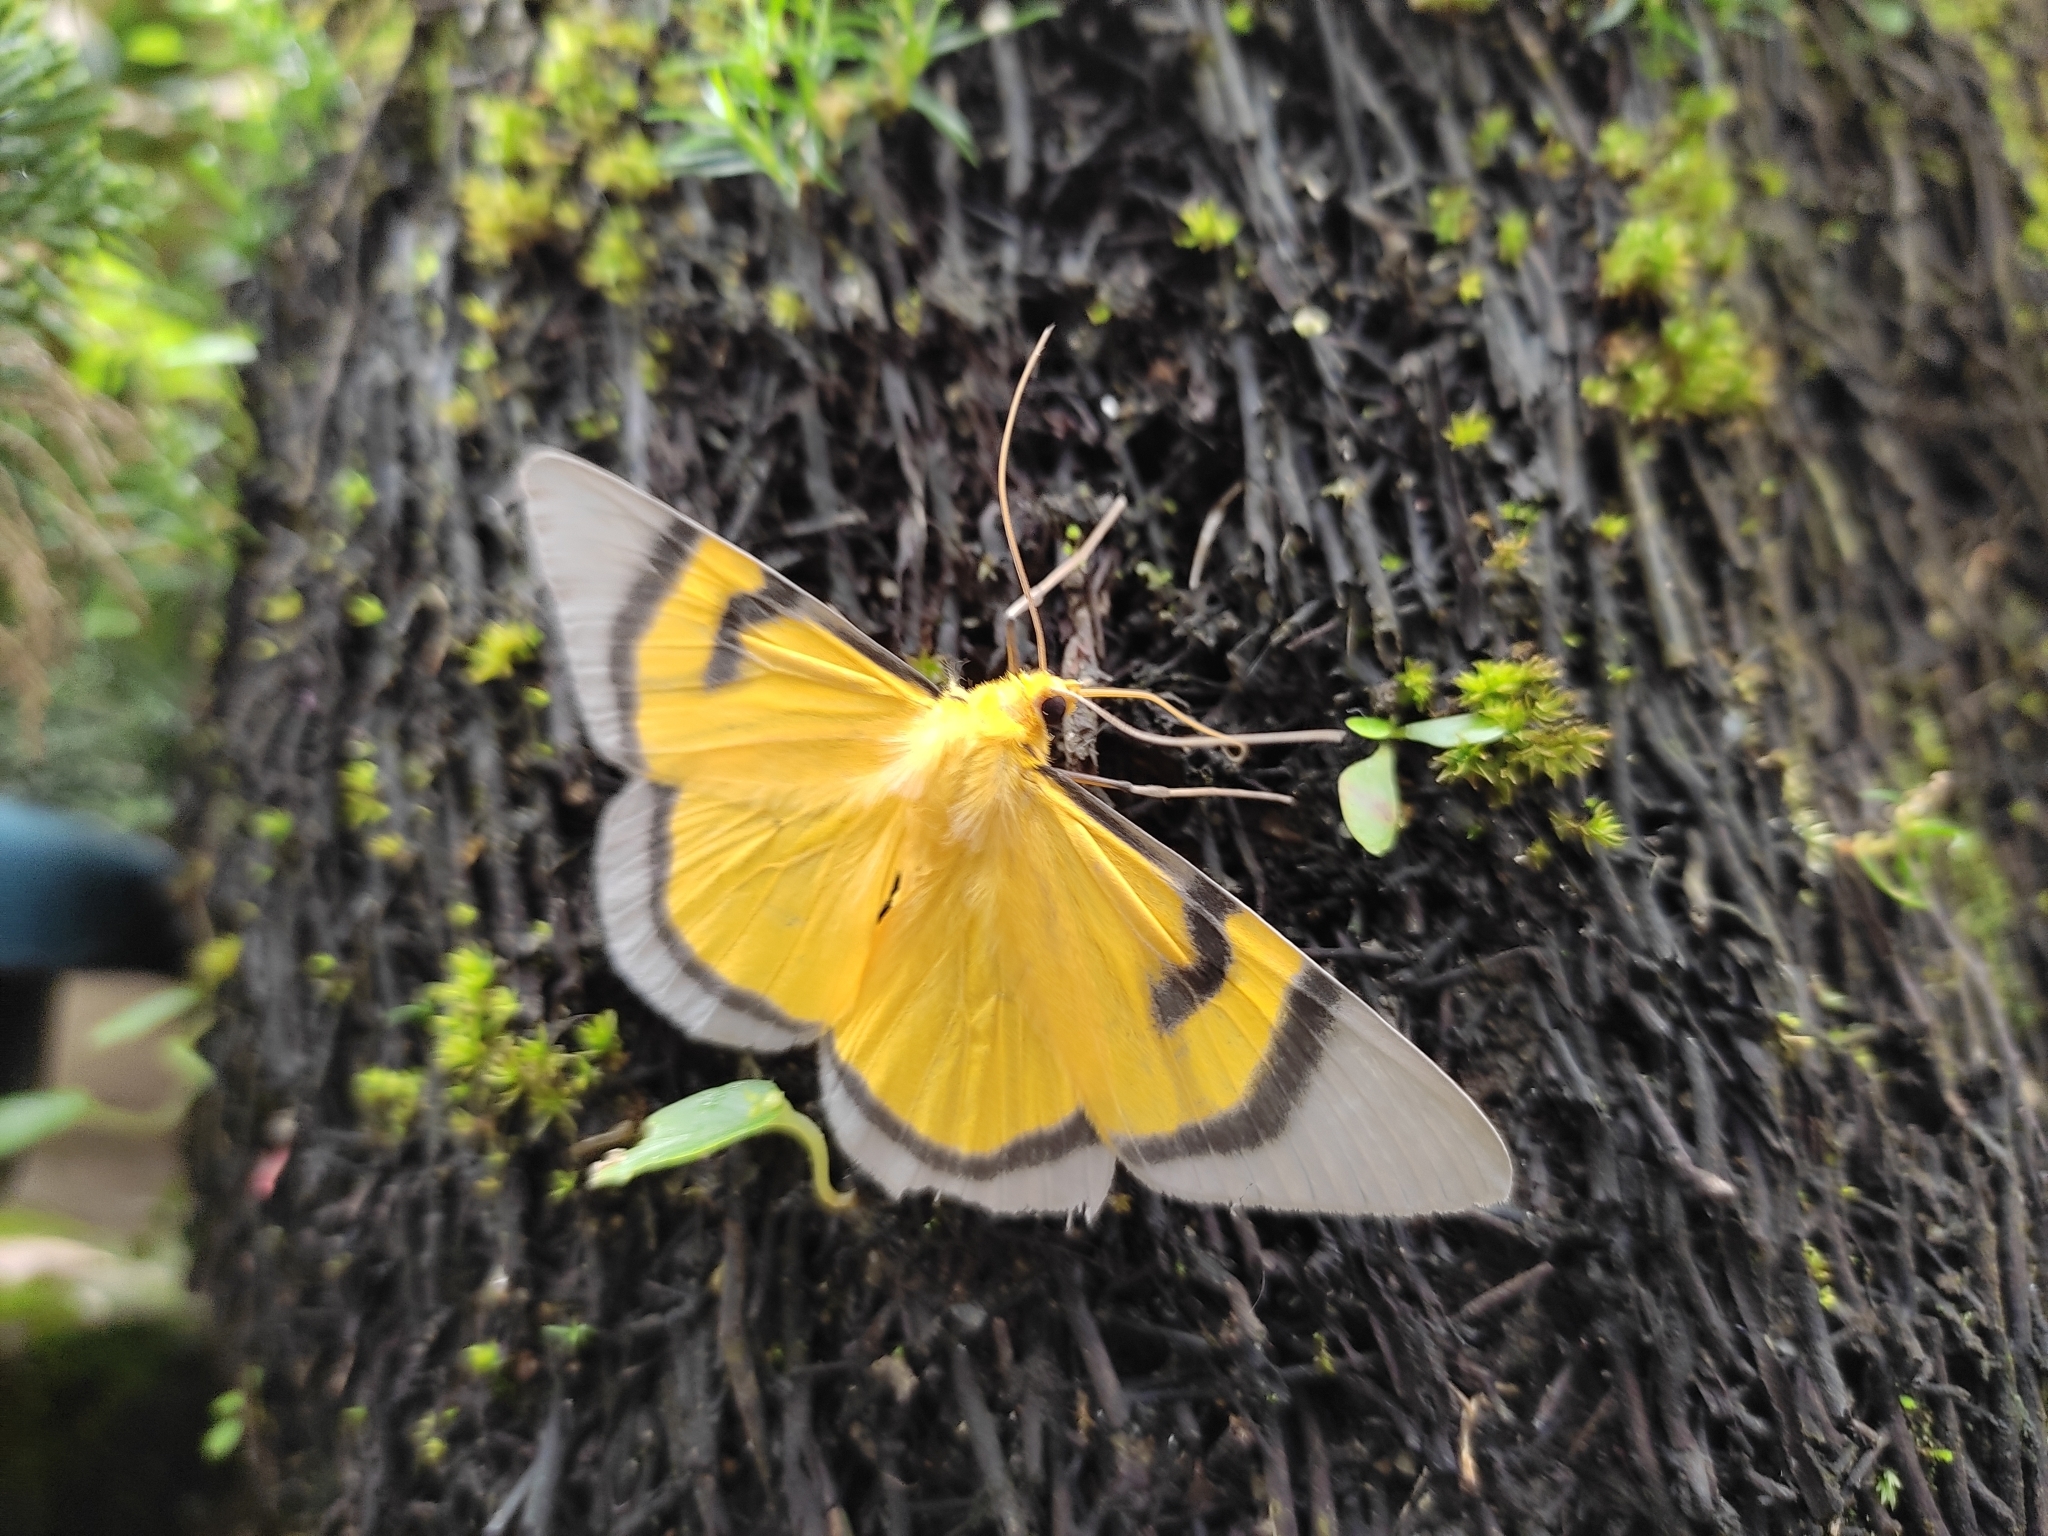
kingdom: Animalia
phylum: Arthropoda
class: Insecta
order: Lepidoptera
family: Geometridae
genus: Celerena
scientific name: Celerena divisa
